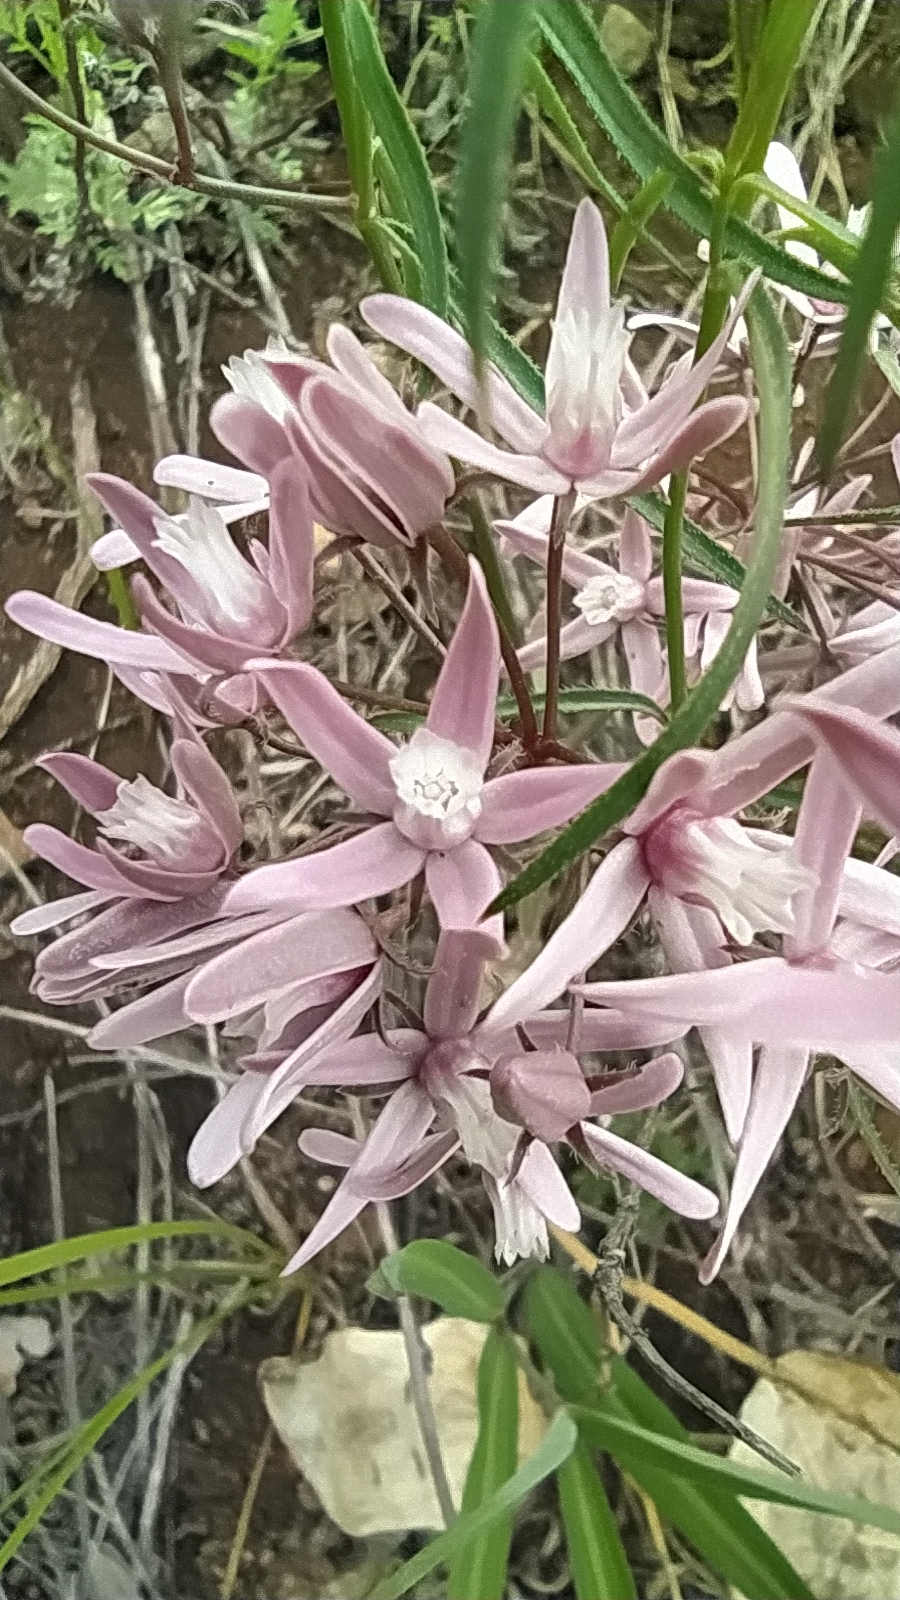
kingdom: Plantae
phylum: Tracheophyta
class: Magnoliopsida
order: Gentianales
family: Apocynaceae
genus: Vincetoxicum
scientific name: Vincetoxicum purpureum
